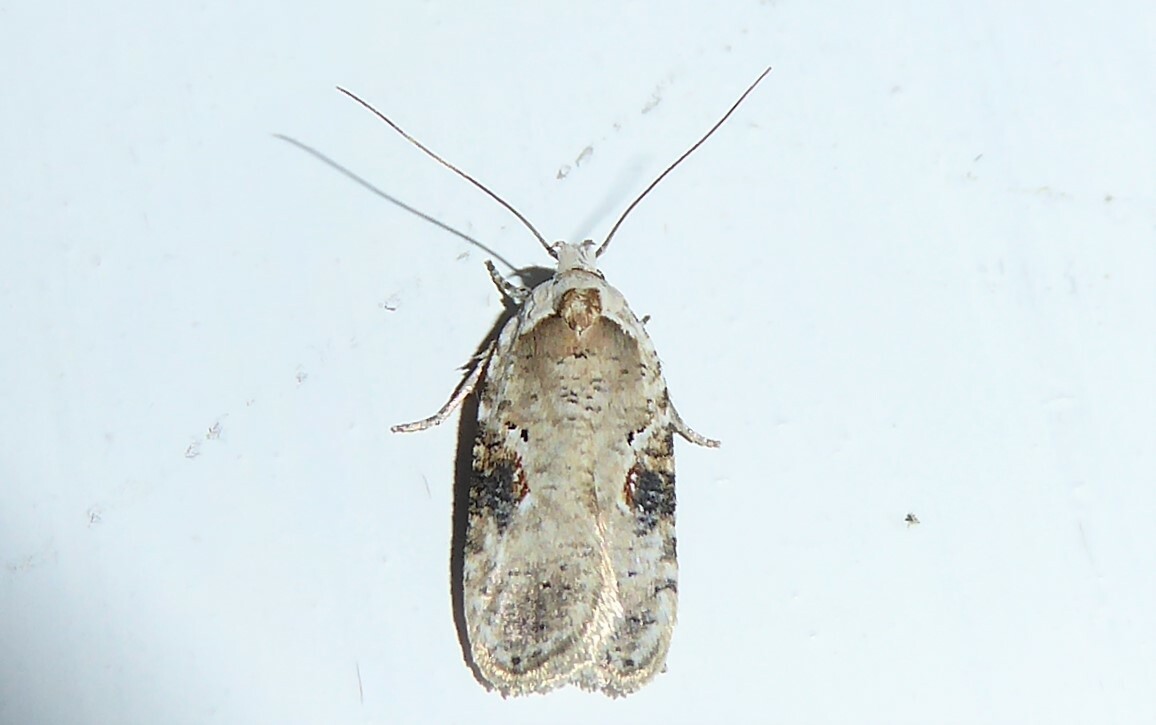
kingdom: Animalia
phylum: Arthropoda
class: Insecta
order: Lepidoptera
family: Depressariidae
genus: Agonopterix
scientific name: Agonopterix alstroemeriana
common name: Moth
